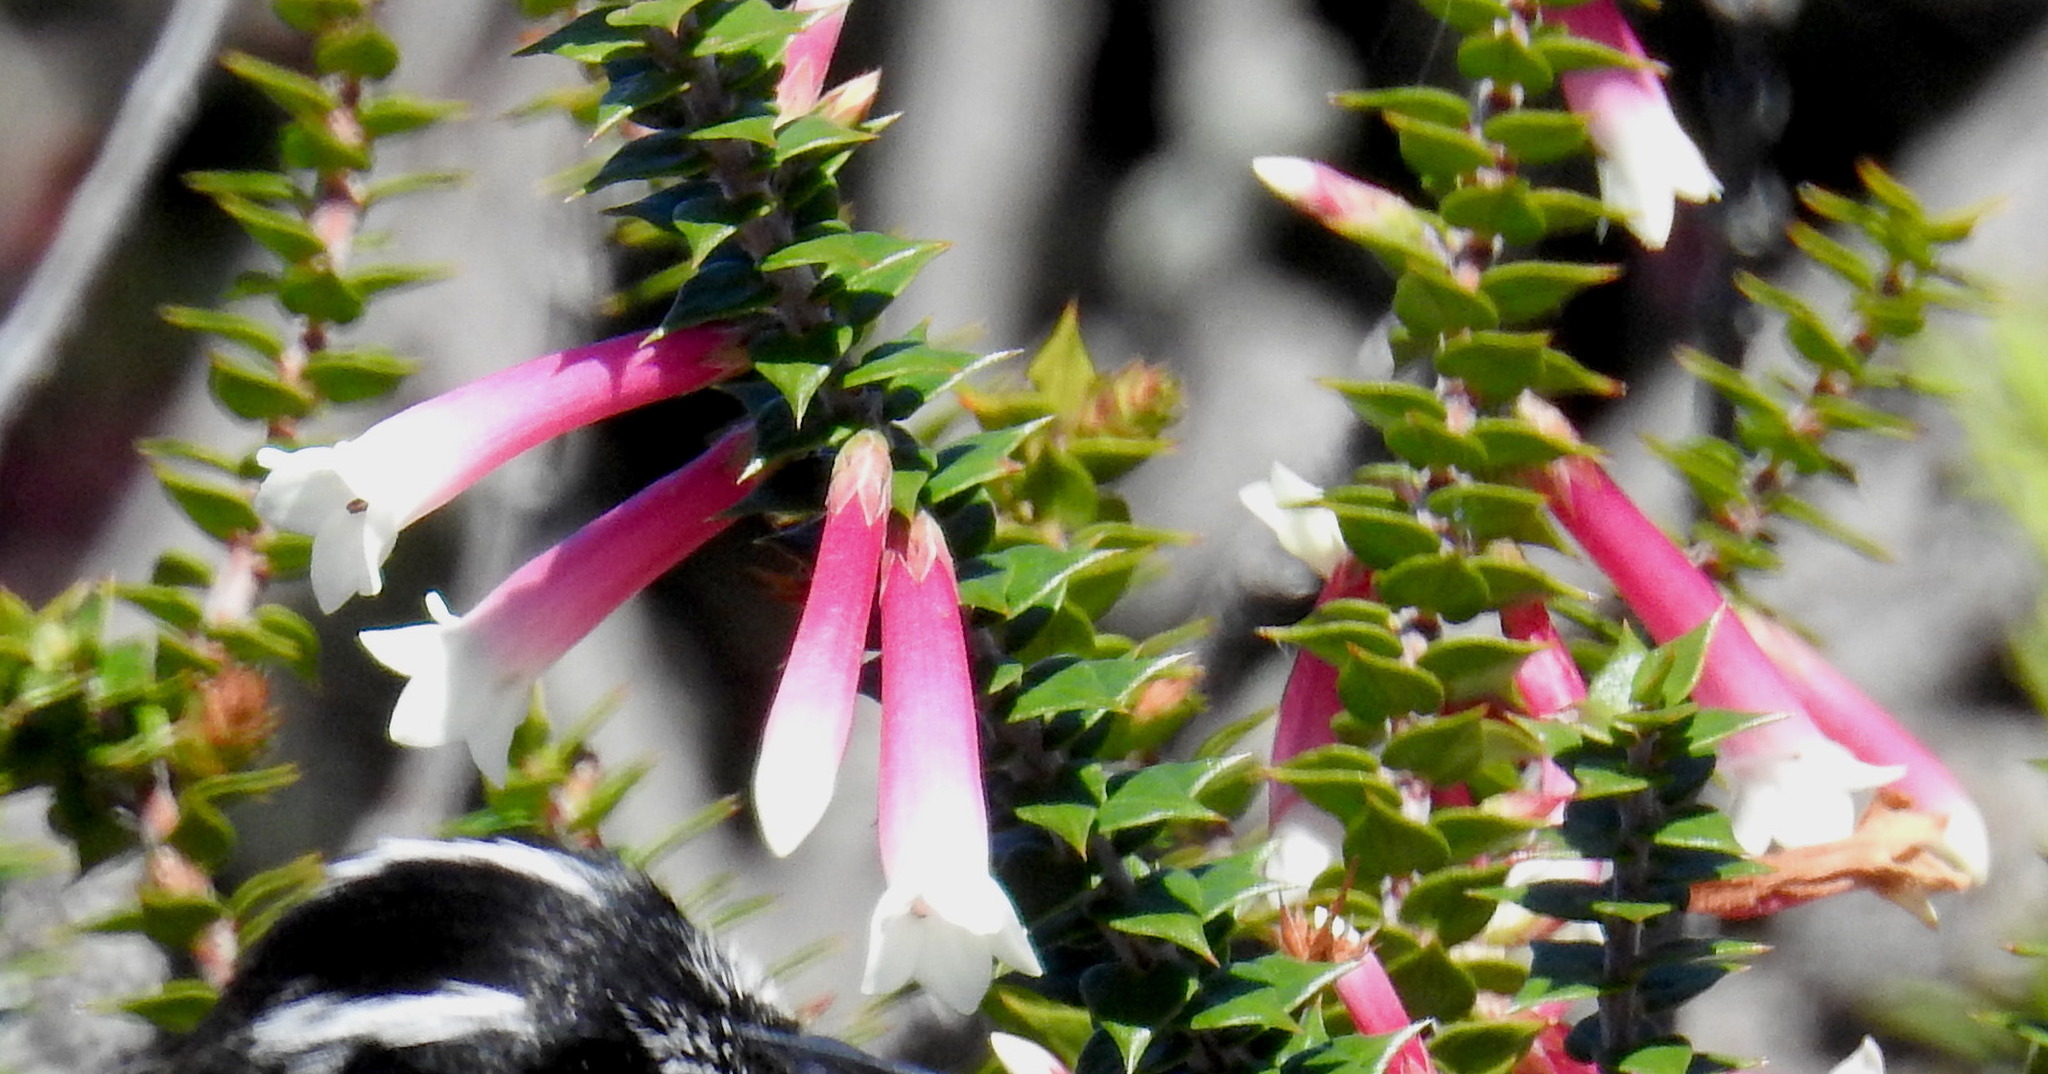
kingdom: Plantae
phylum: Tracheophyta
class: Magnoliopsida
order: Ericales
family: Ericaceae
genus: Epacris
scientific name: Epacris longiflora
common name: Fuchsia-heath
